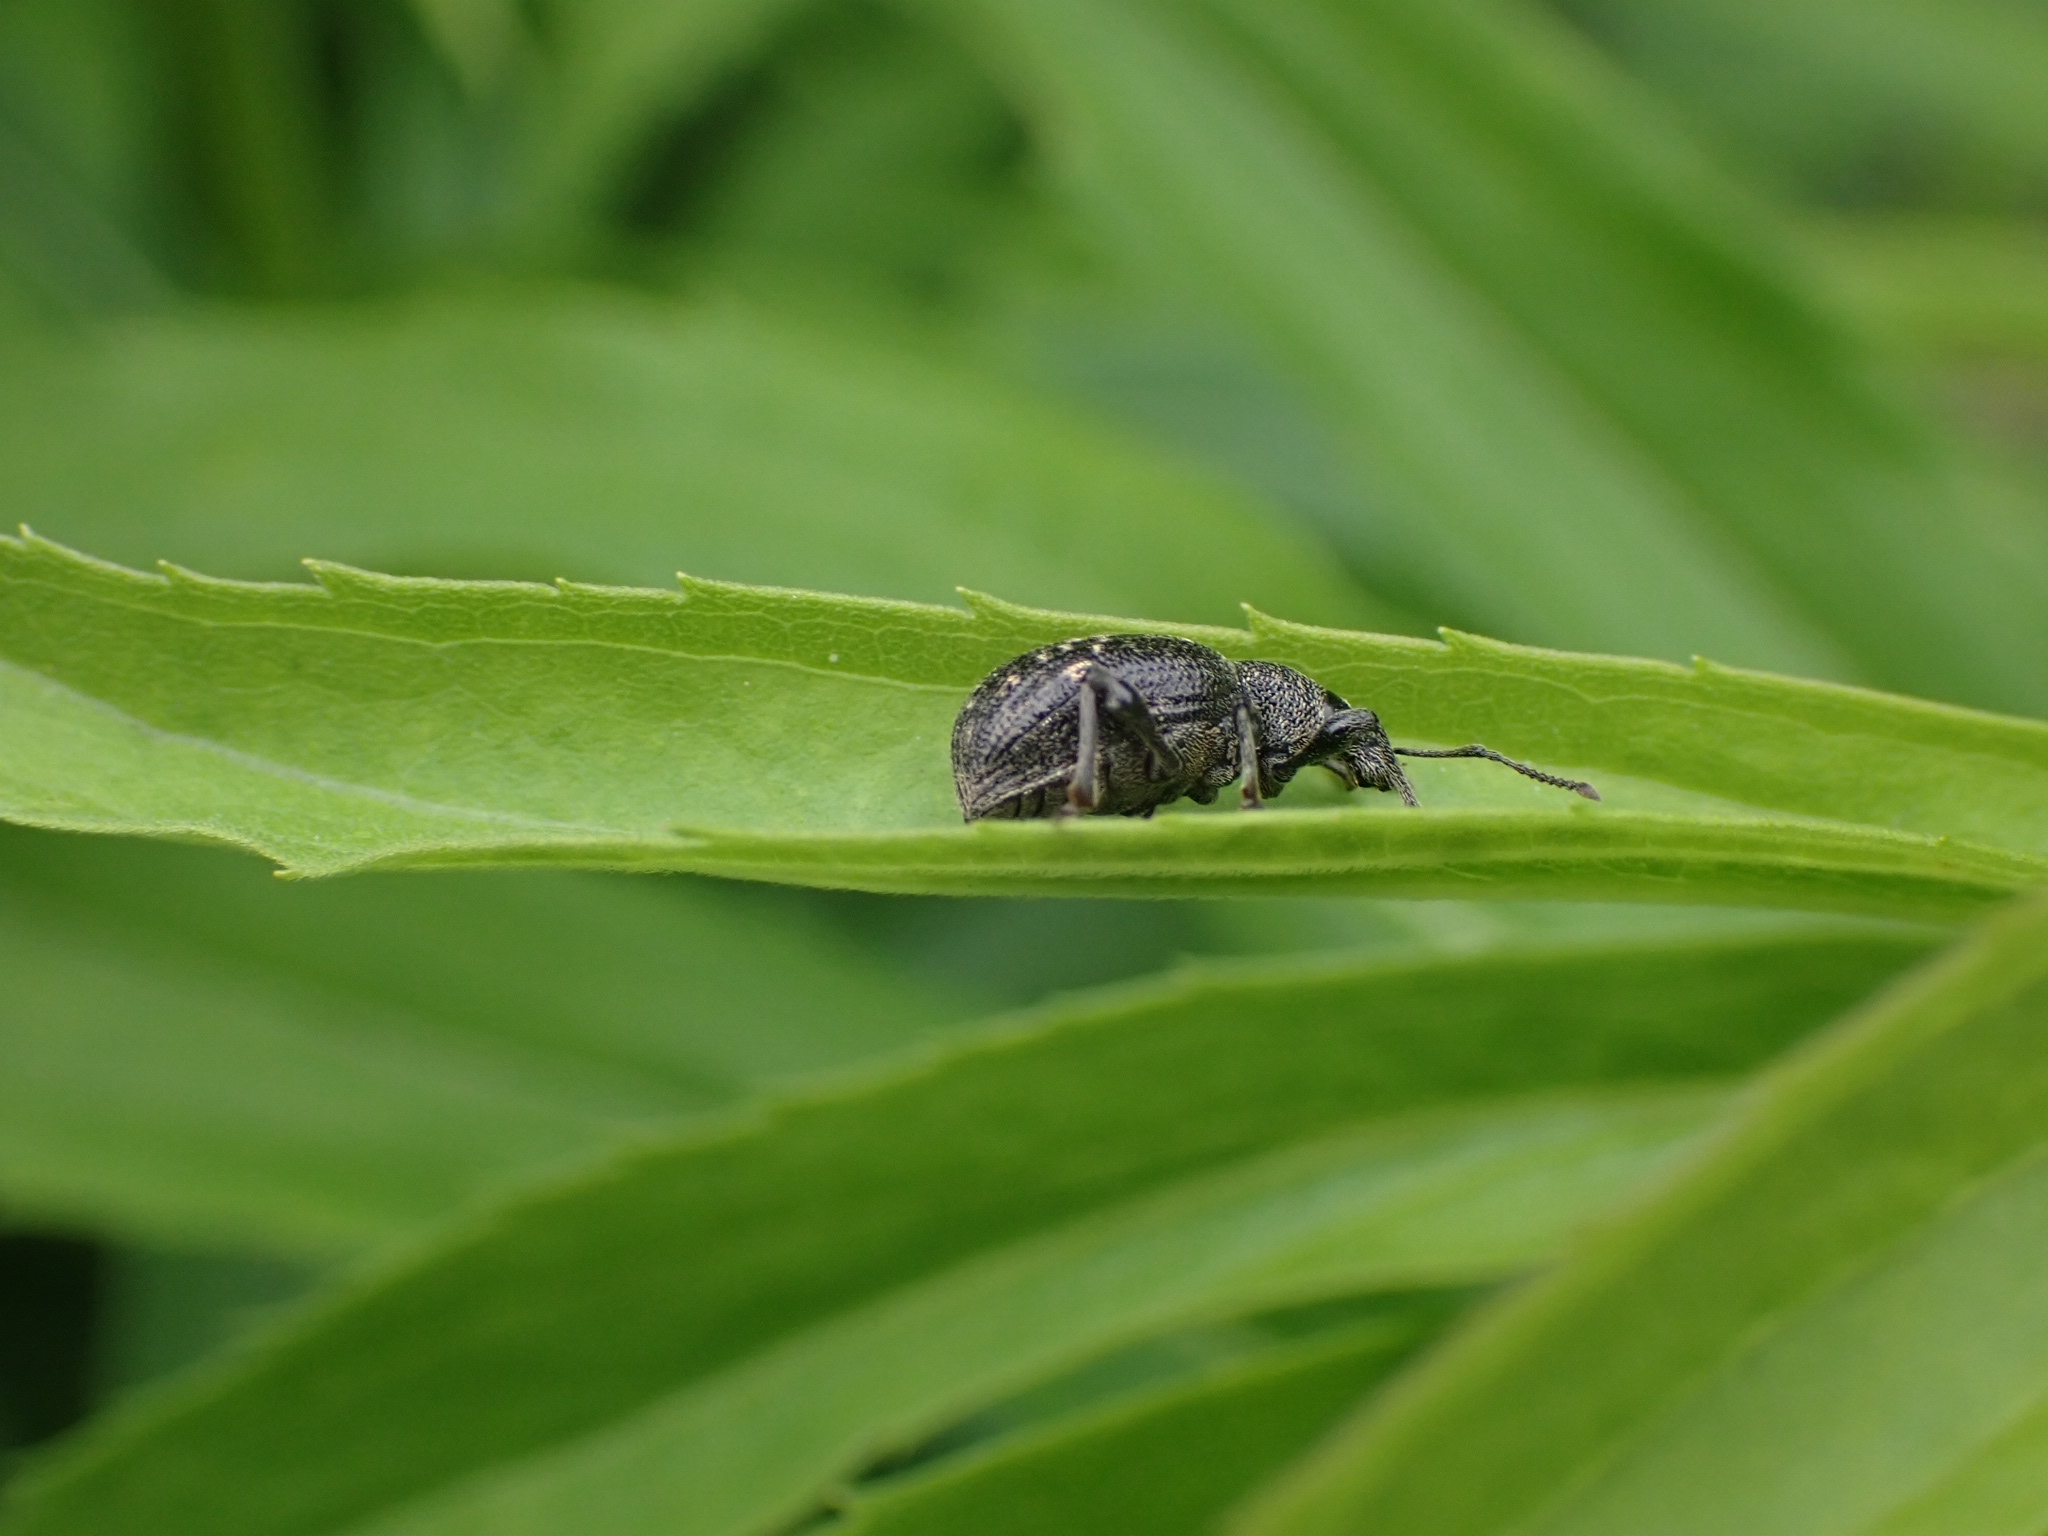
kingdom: Animalia
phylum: Arthropoda
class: Insecta
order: Coleoptera
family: Curculionidae
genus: Otiorhynchus
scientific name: Otiorhynchus tristis
